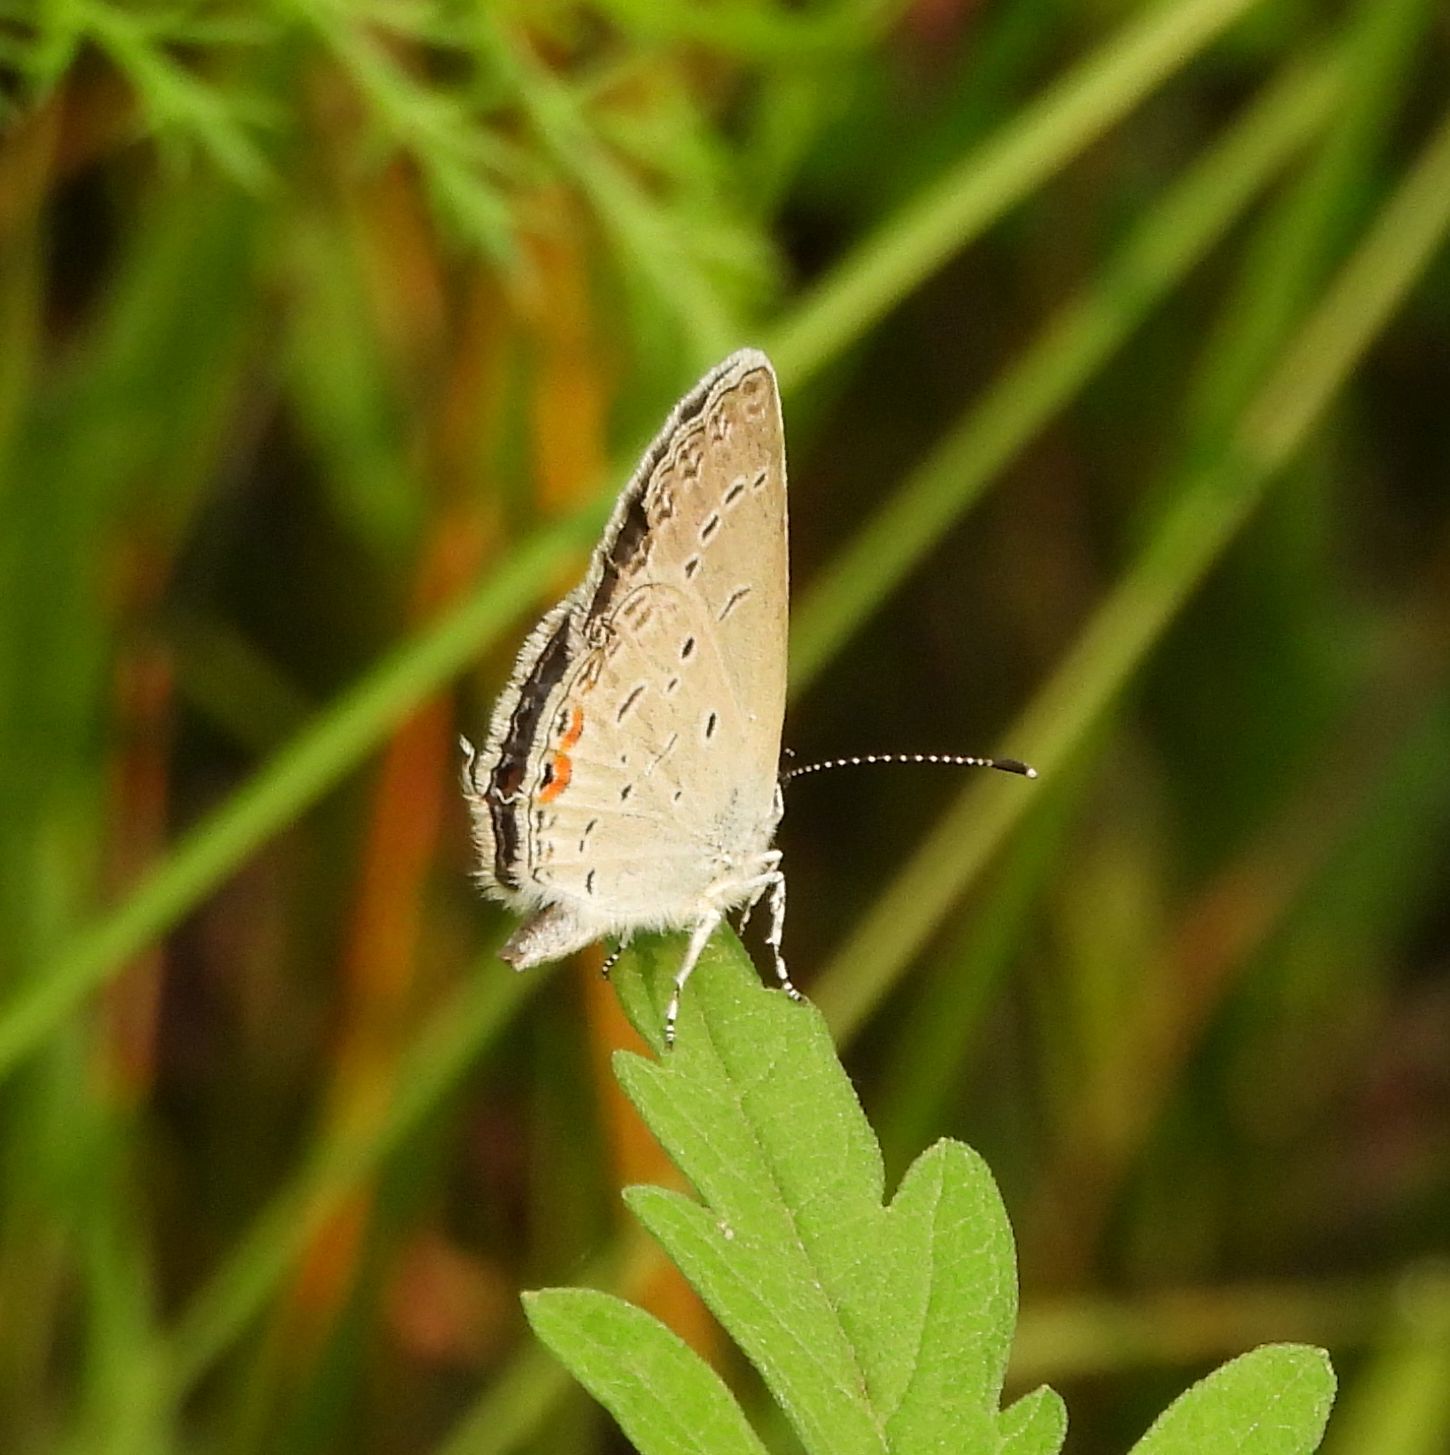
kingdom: Animalia
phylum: Arthropoda
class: Insecta
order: Lepidoptera
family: Lycaenidae
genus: Elkalyce
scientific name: Elkalyce comyntas
